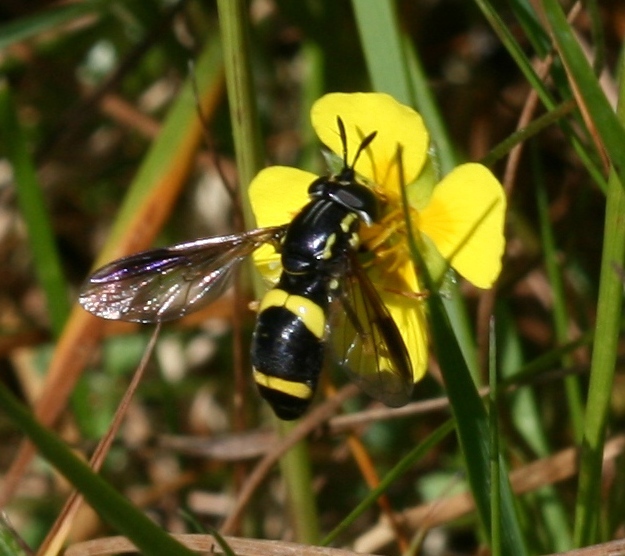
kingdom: Animalia
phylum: Arthropoda
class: Insecta
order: Diptera
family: Syrphidae
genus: Chrysotoxum
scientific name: Chrysotoxum bicincta
